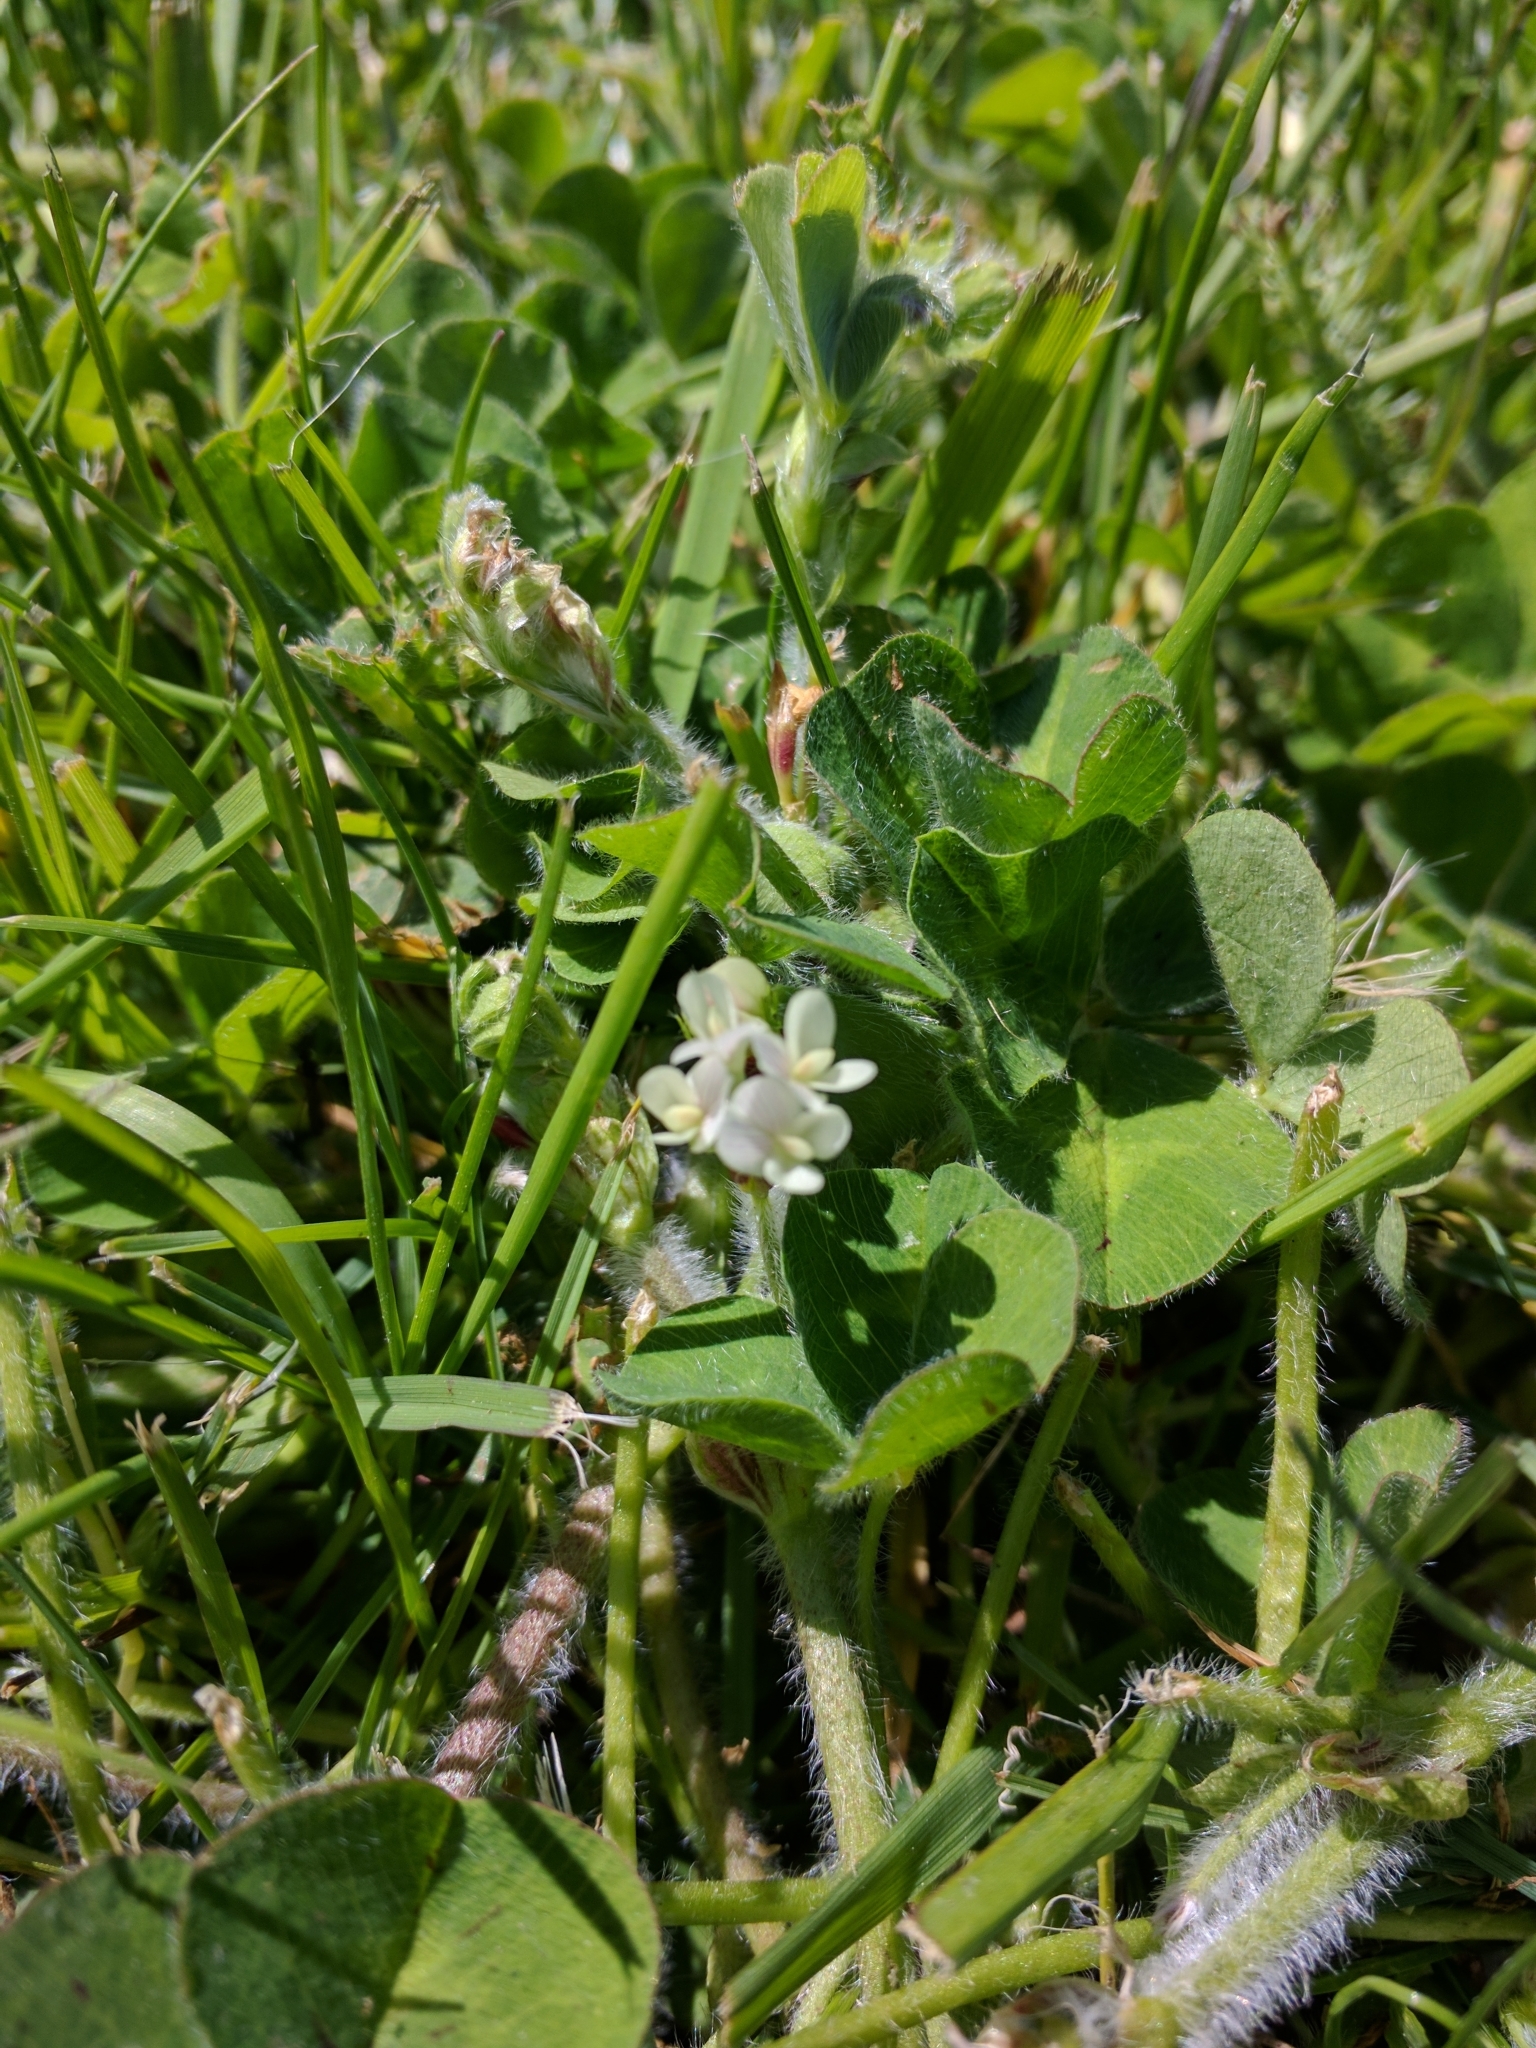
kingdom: Plantae
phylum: Tracheophyta
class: Magnoliopsida
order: Fabales
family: Fabaceae
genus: Trifolium
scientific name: Trifolium subterraneum
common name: Subterranean clover
